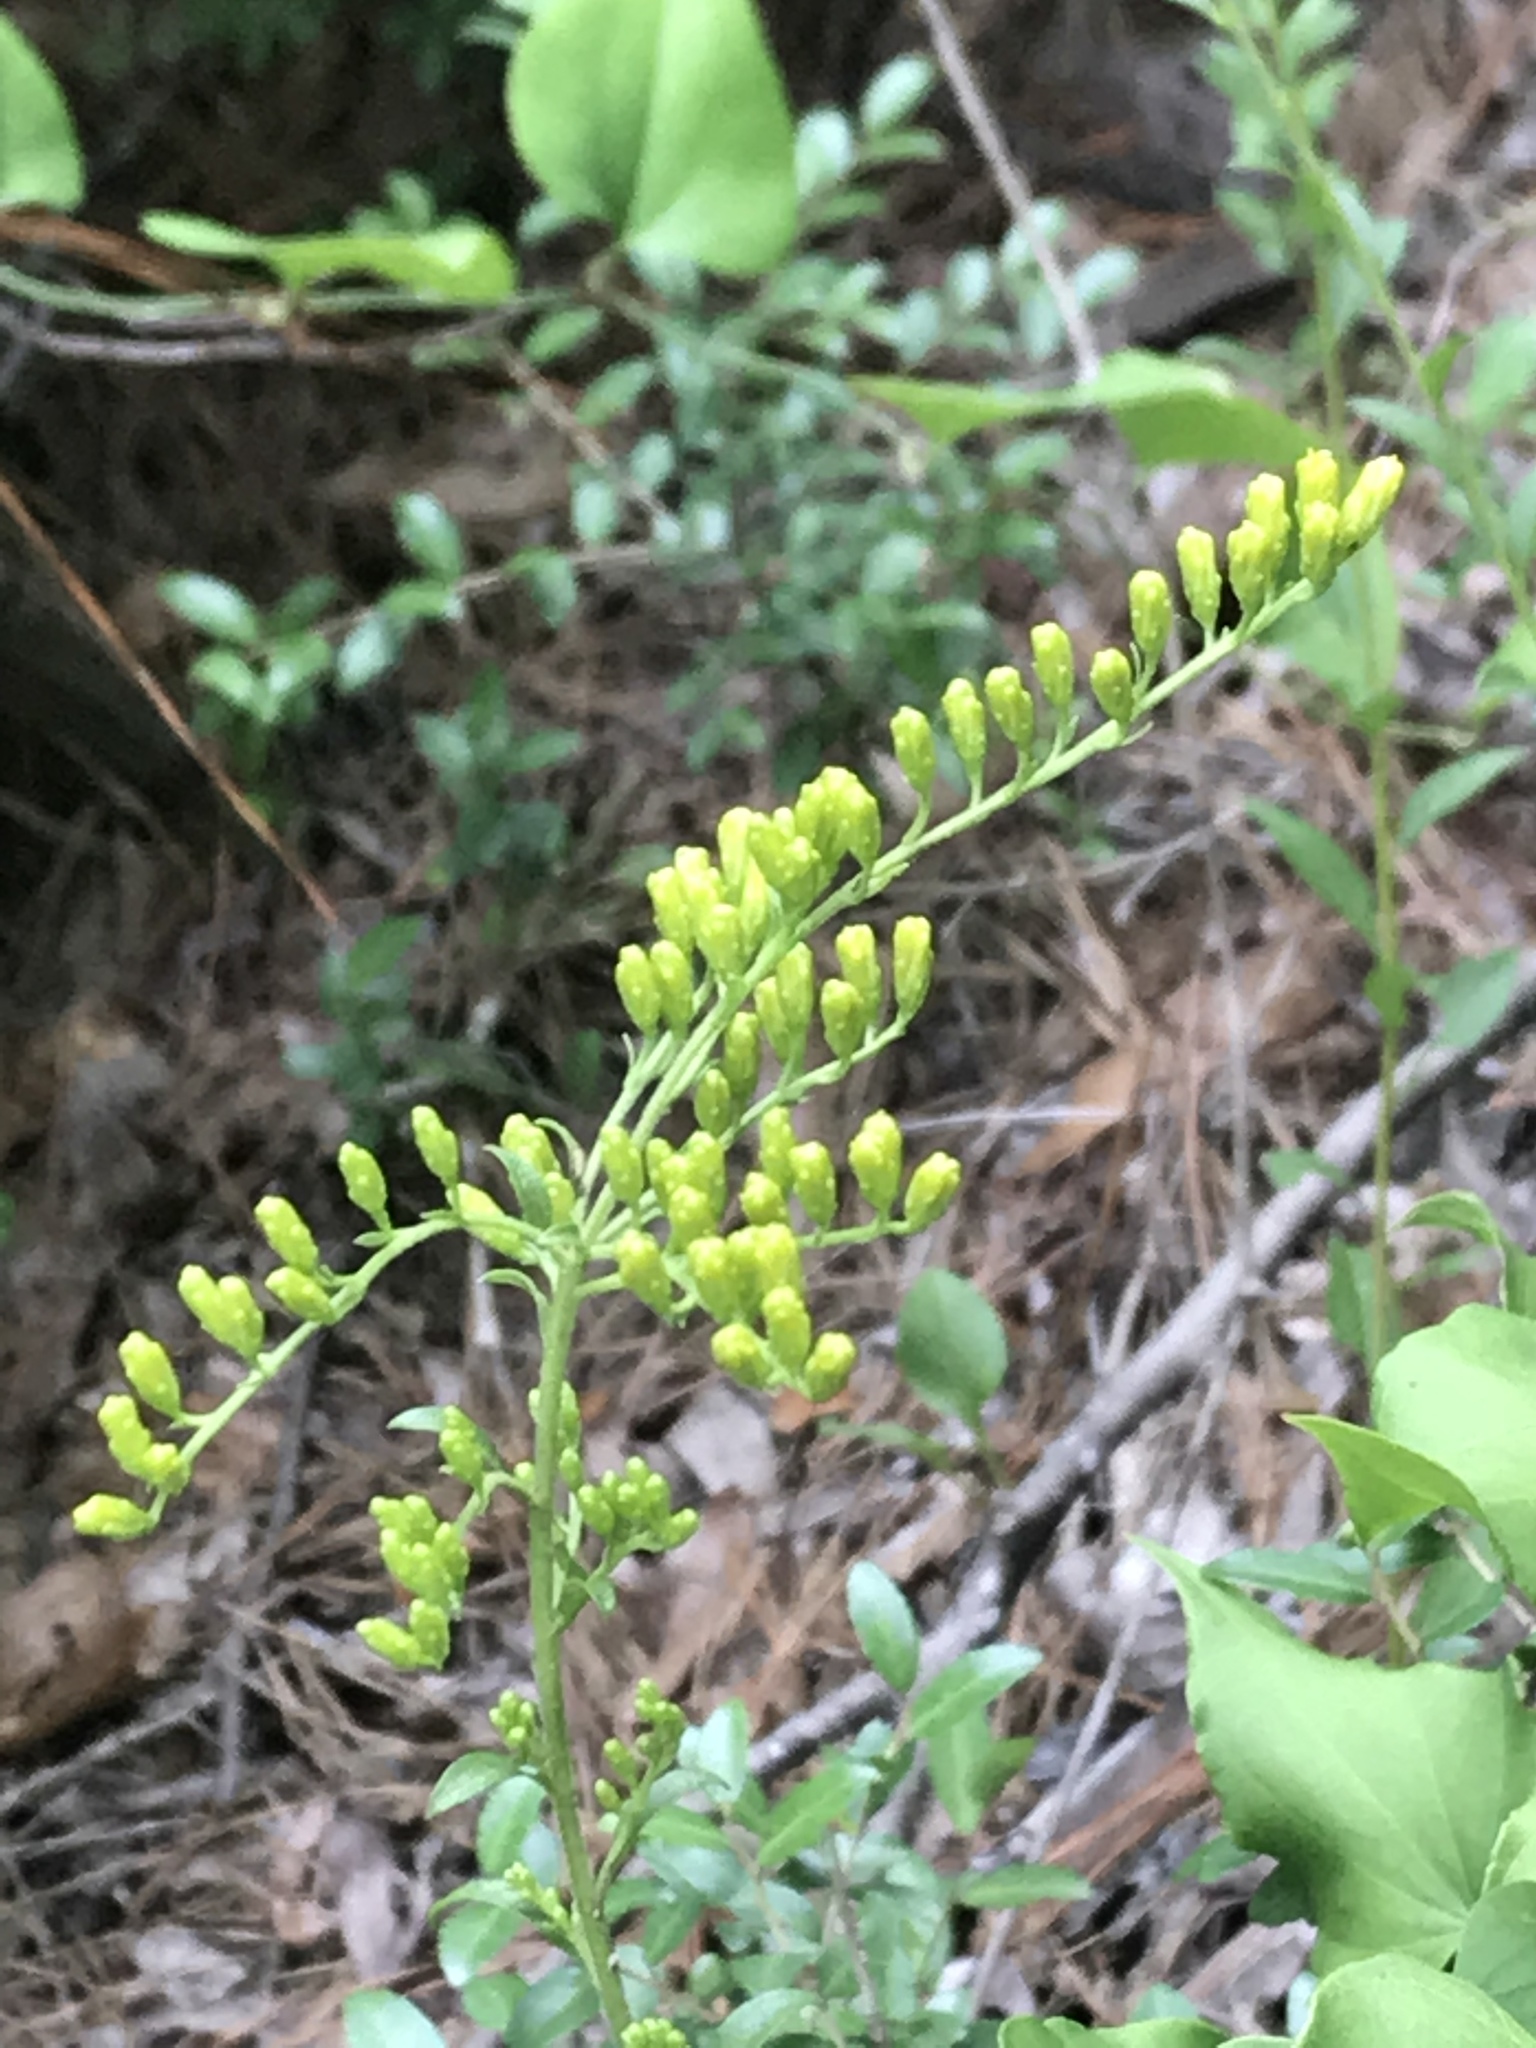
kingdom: Plantae
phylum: Tracheophyta
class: Magnoliopsida
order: Asterales
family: Asteraceae
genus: Solidago
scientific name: Solidago petiolaris
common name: Downy ragged goldenrod
